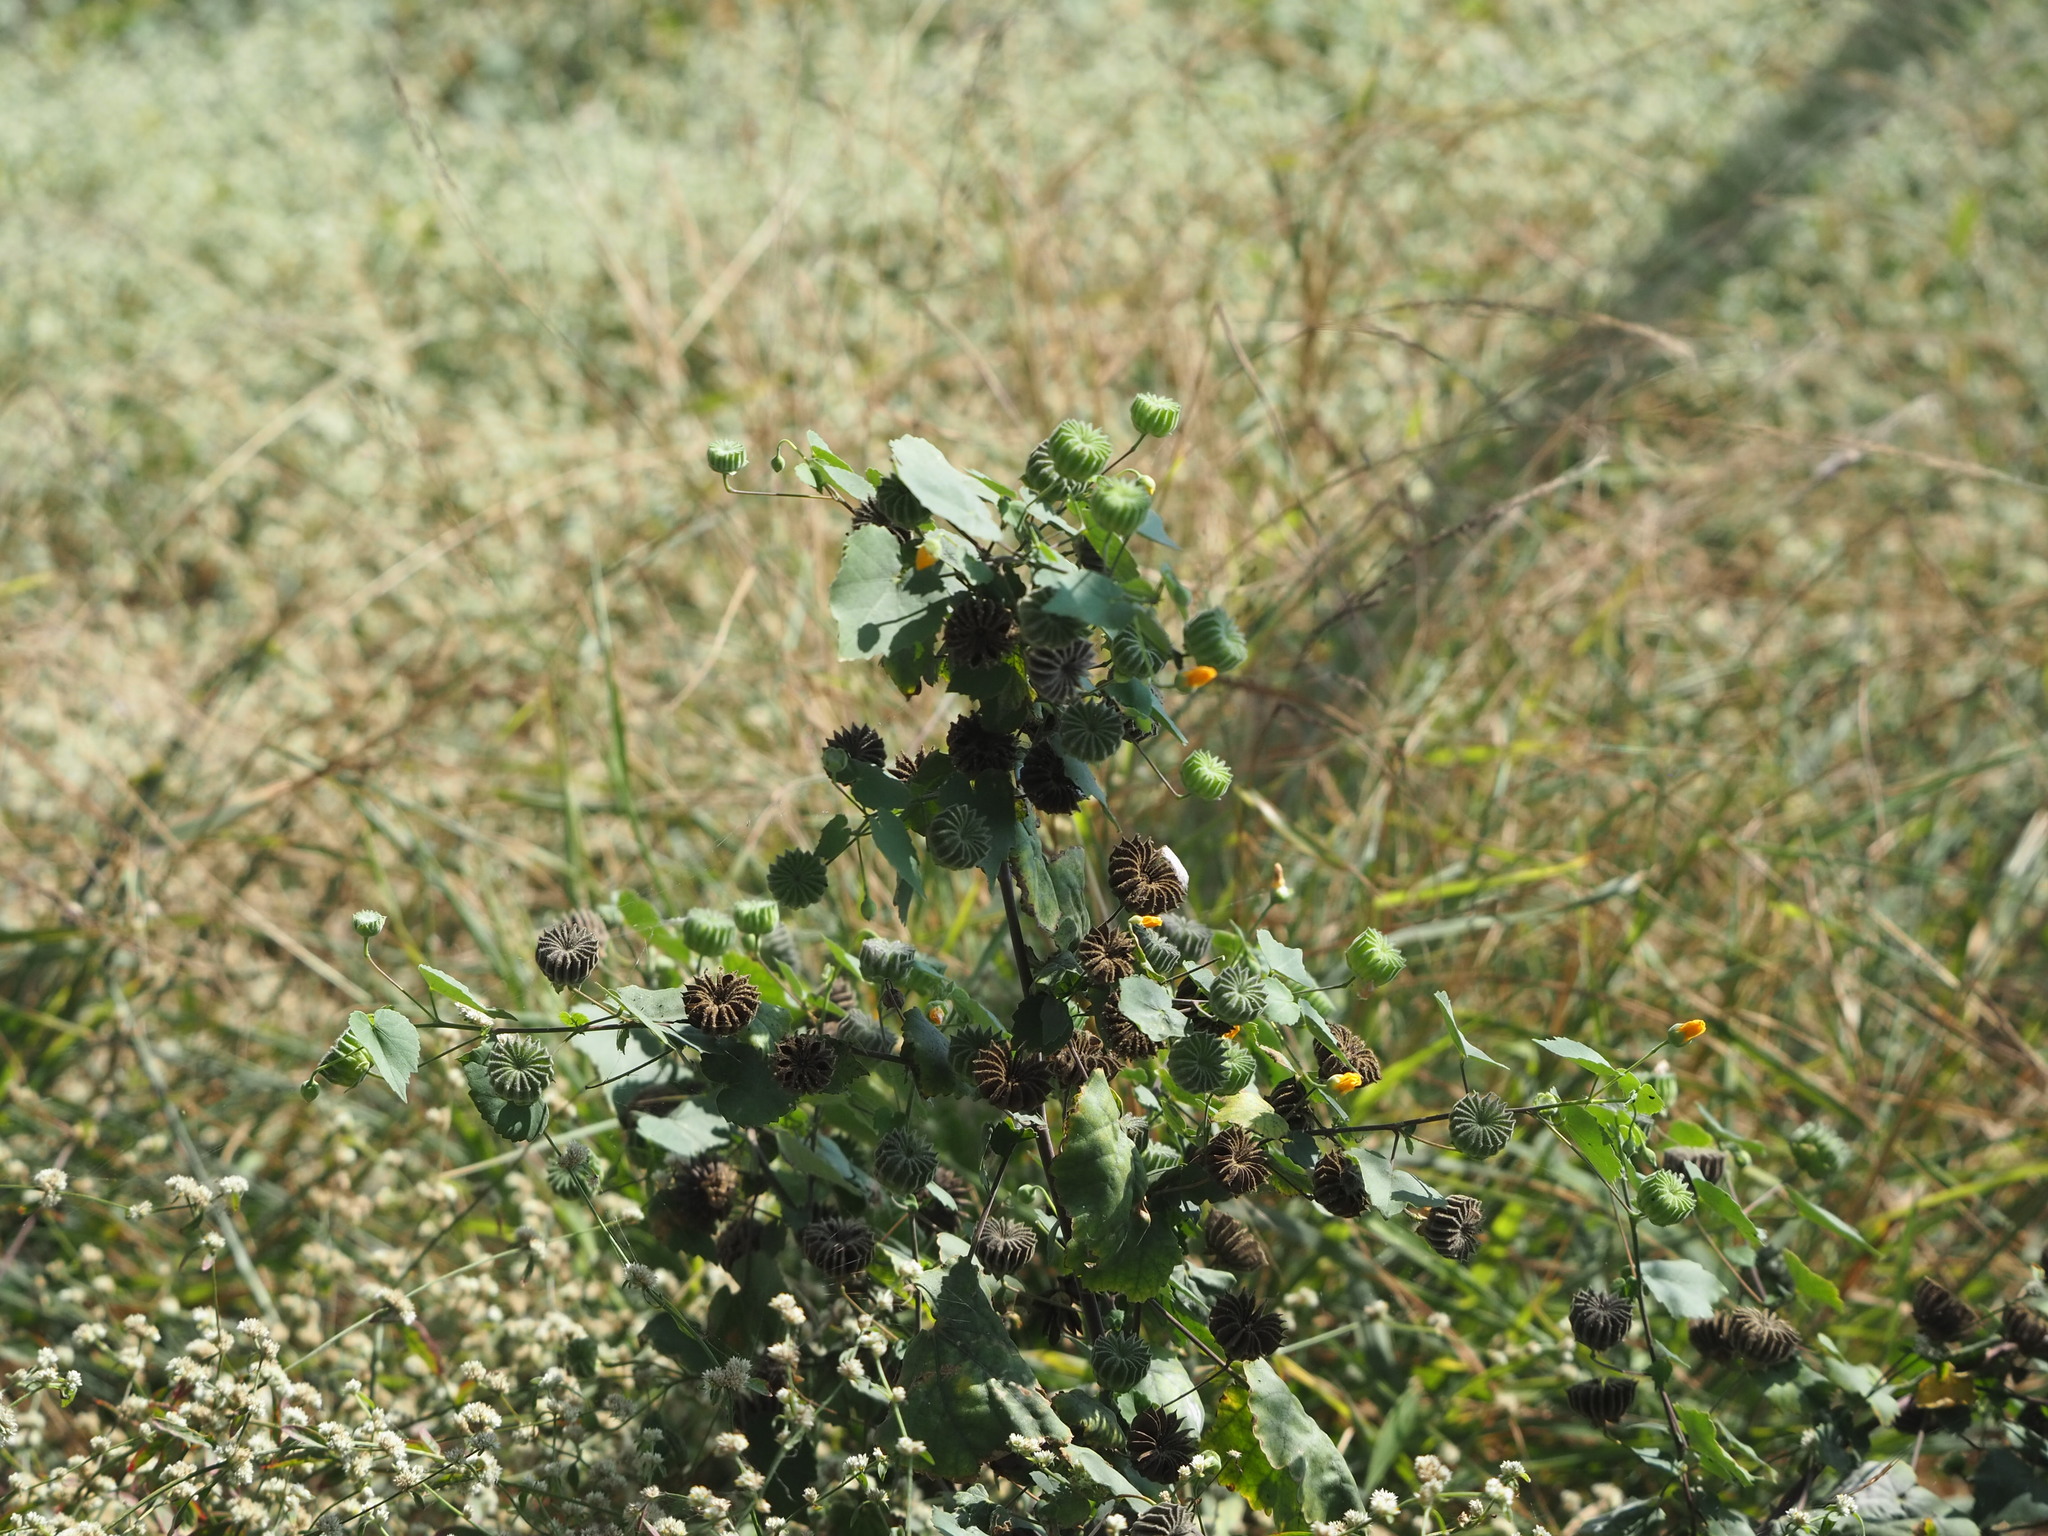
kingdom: Plantae
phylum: Tracheophyta
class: Magnoliopsida
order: Malvales
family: Malvaceae
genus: Abutilon
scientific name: Abutilon indicum
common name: Indian abutilon
